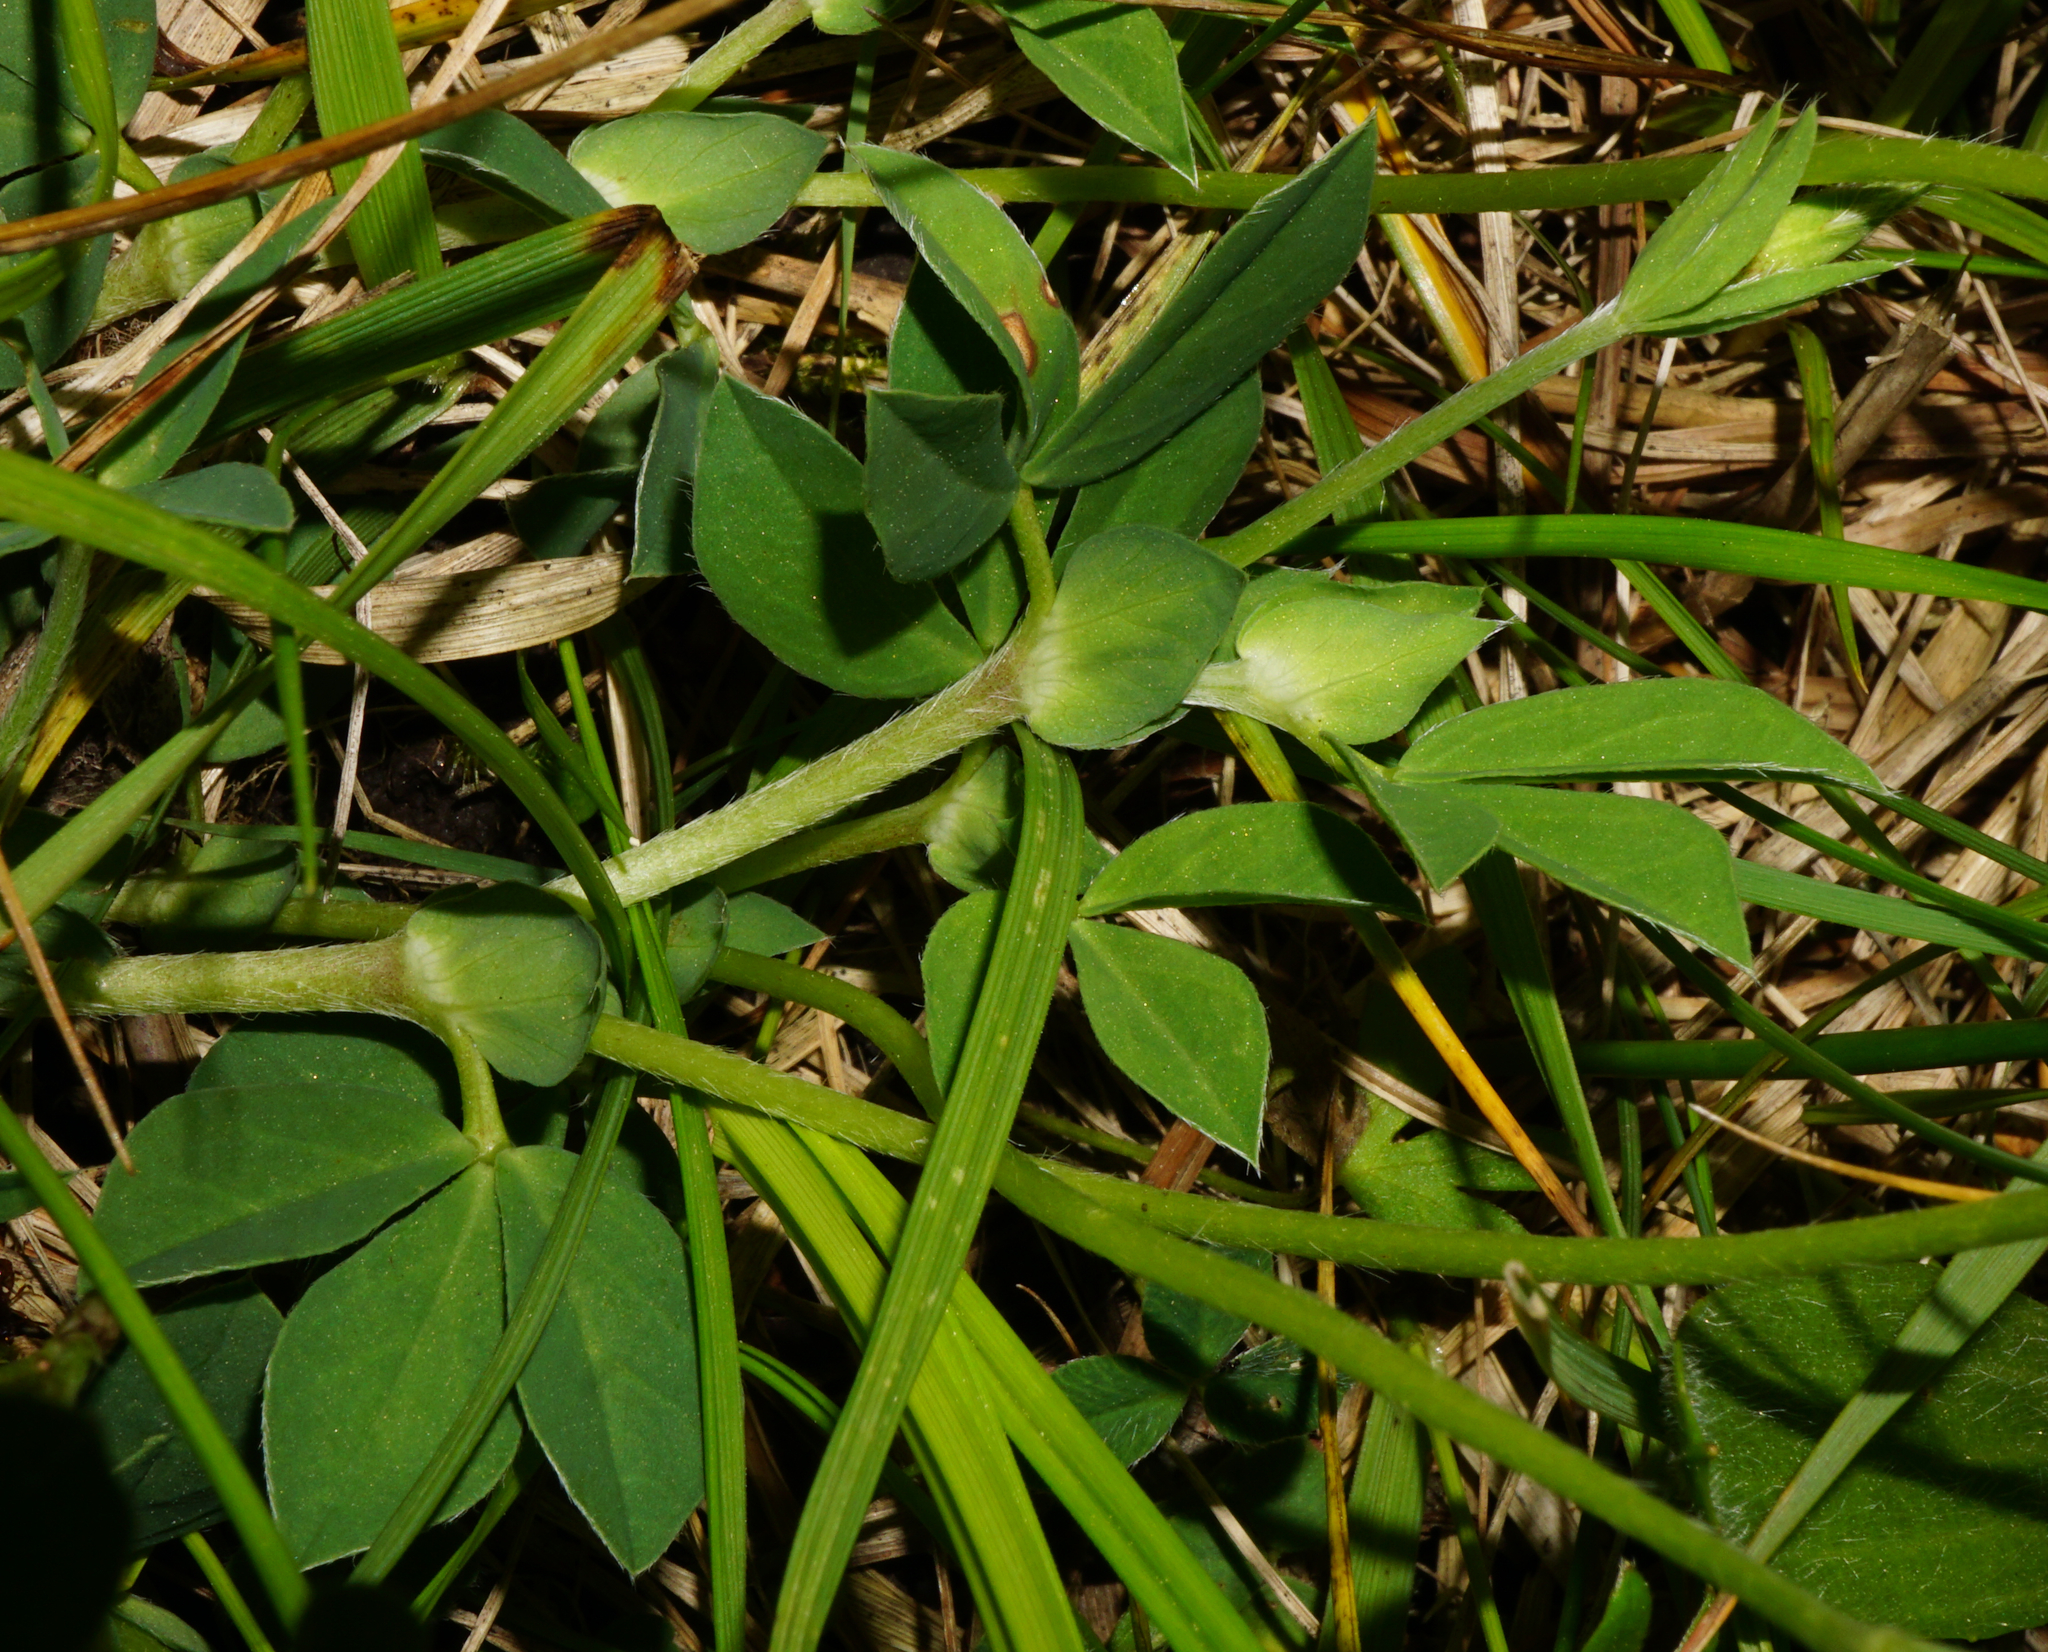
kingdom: Plantae
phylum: Tracheophyta
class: Magnoliopsida
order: Fabales
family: Fabaceae
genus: Lotus
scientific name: Lotus maritimus
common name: Dragon's-teeth
